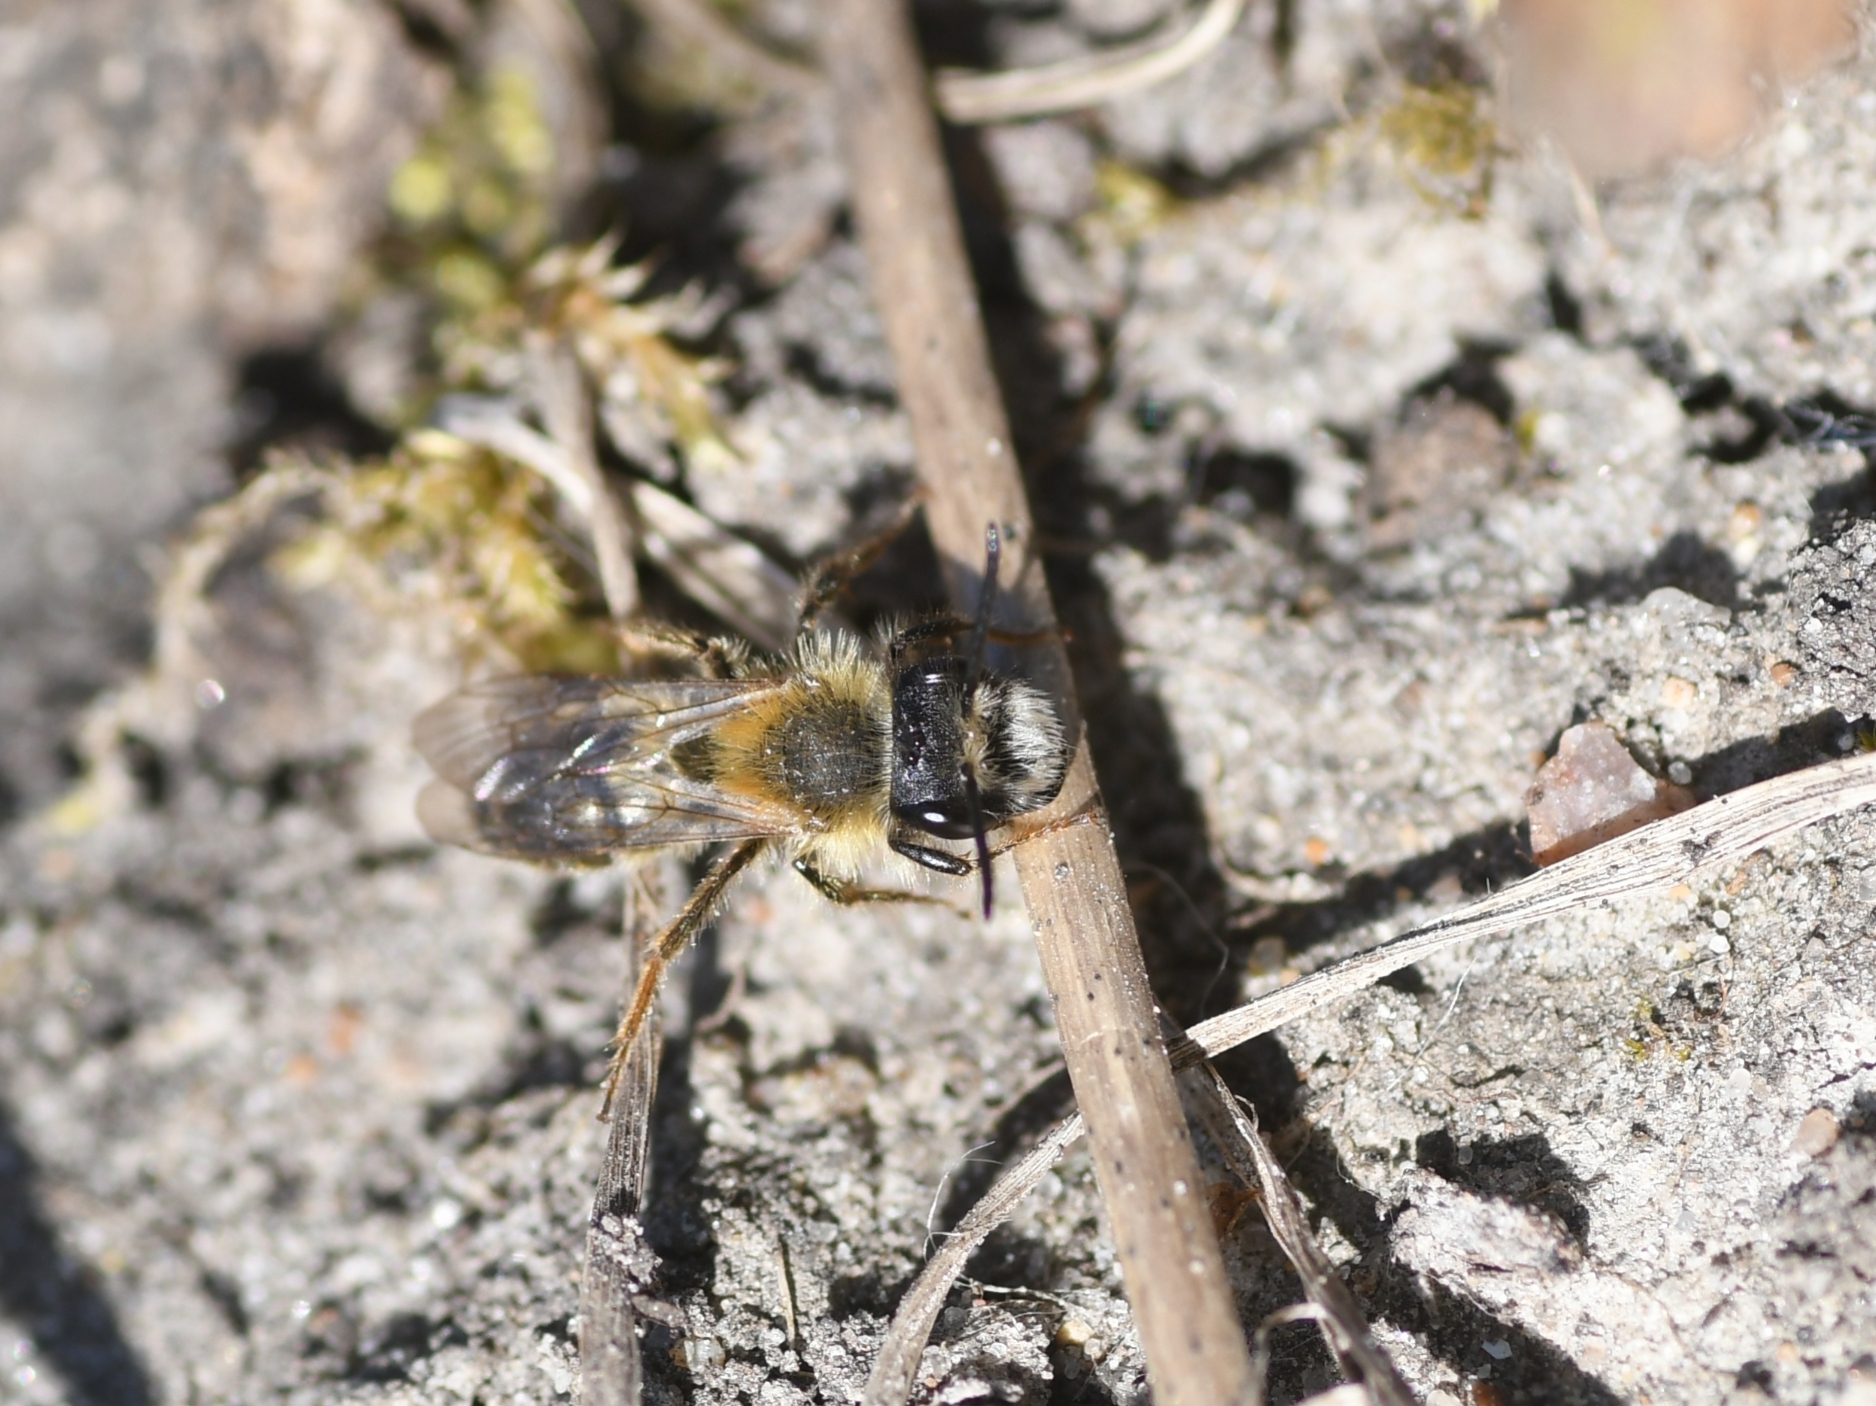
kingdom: Animalia
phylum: Arthropoda
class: Insecta
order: Hymenoptera
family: Andrenidae
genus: Andrena
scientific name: Andrena fulva
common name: Tawny mining bee
